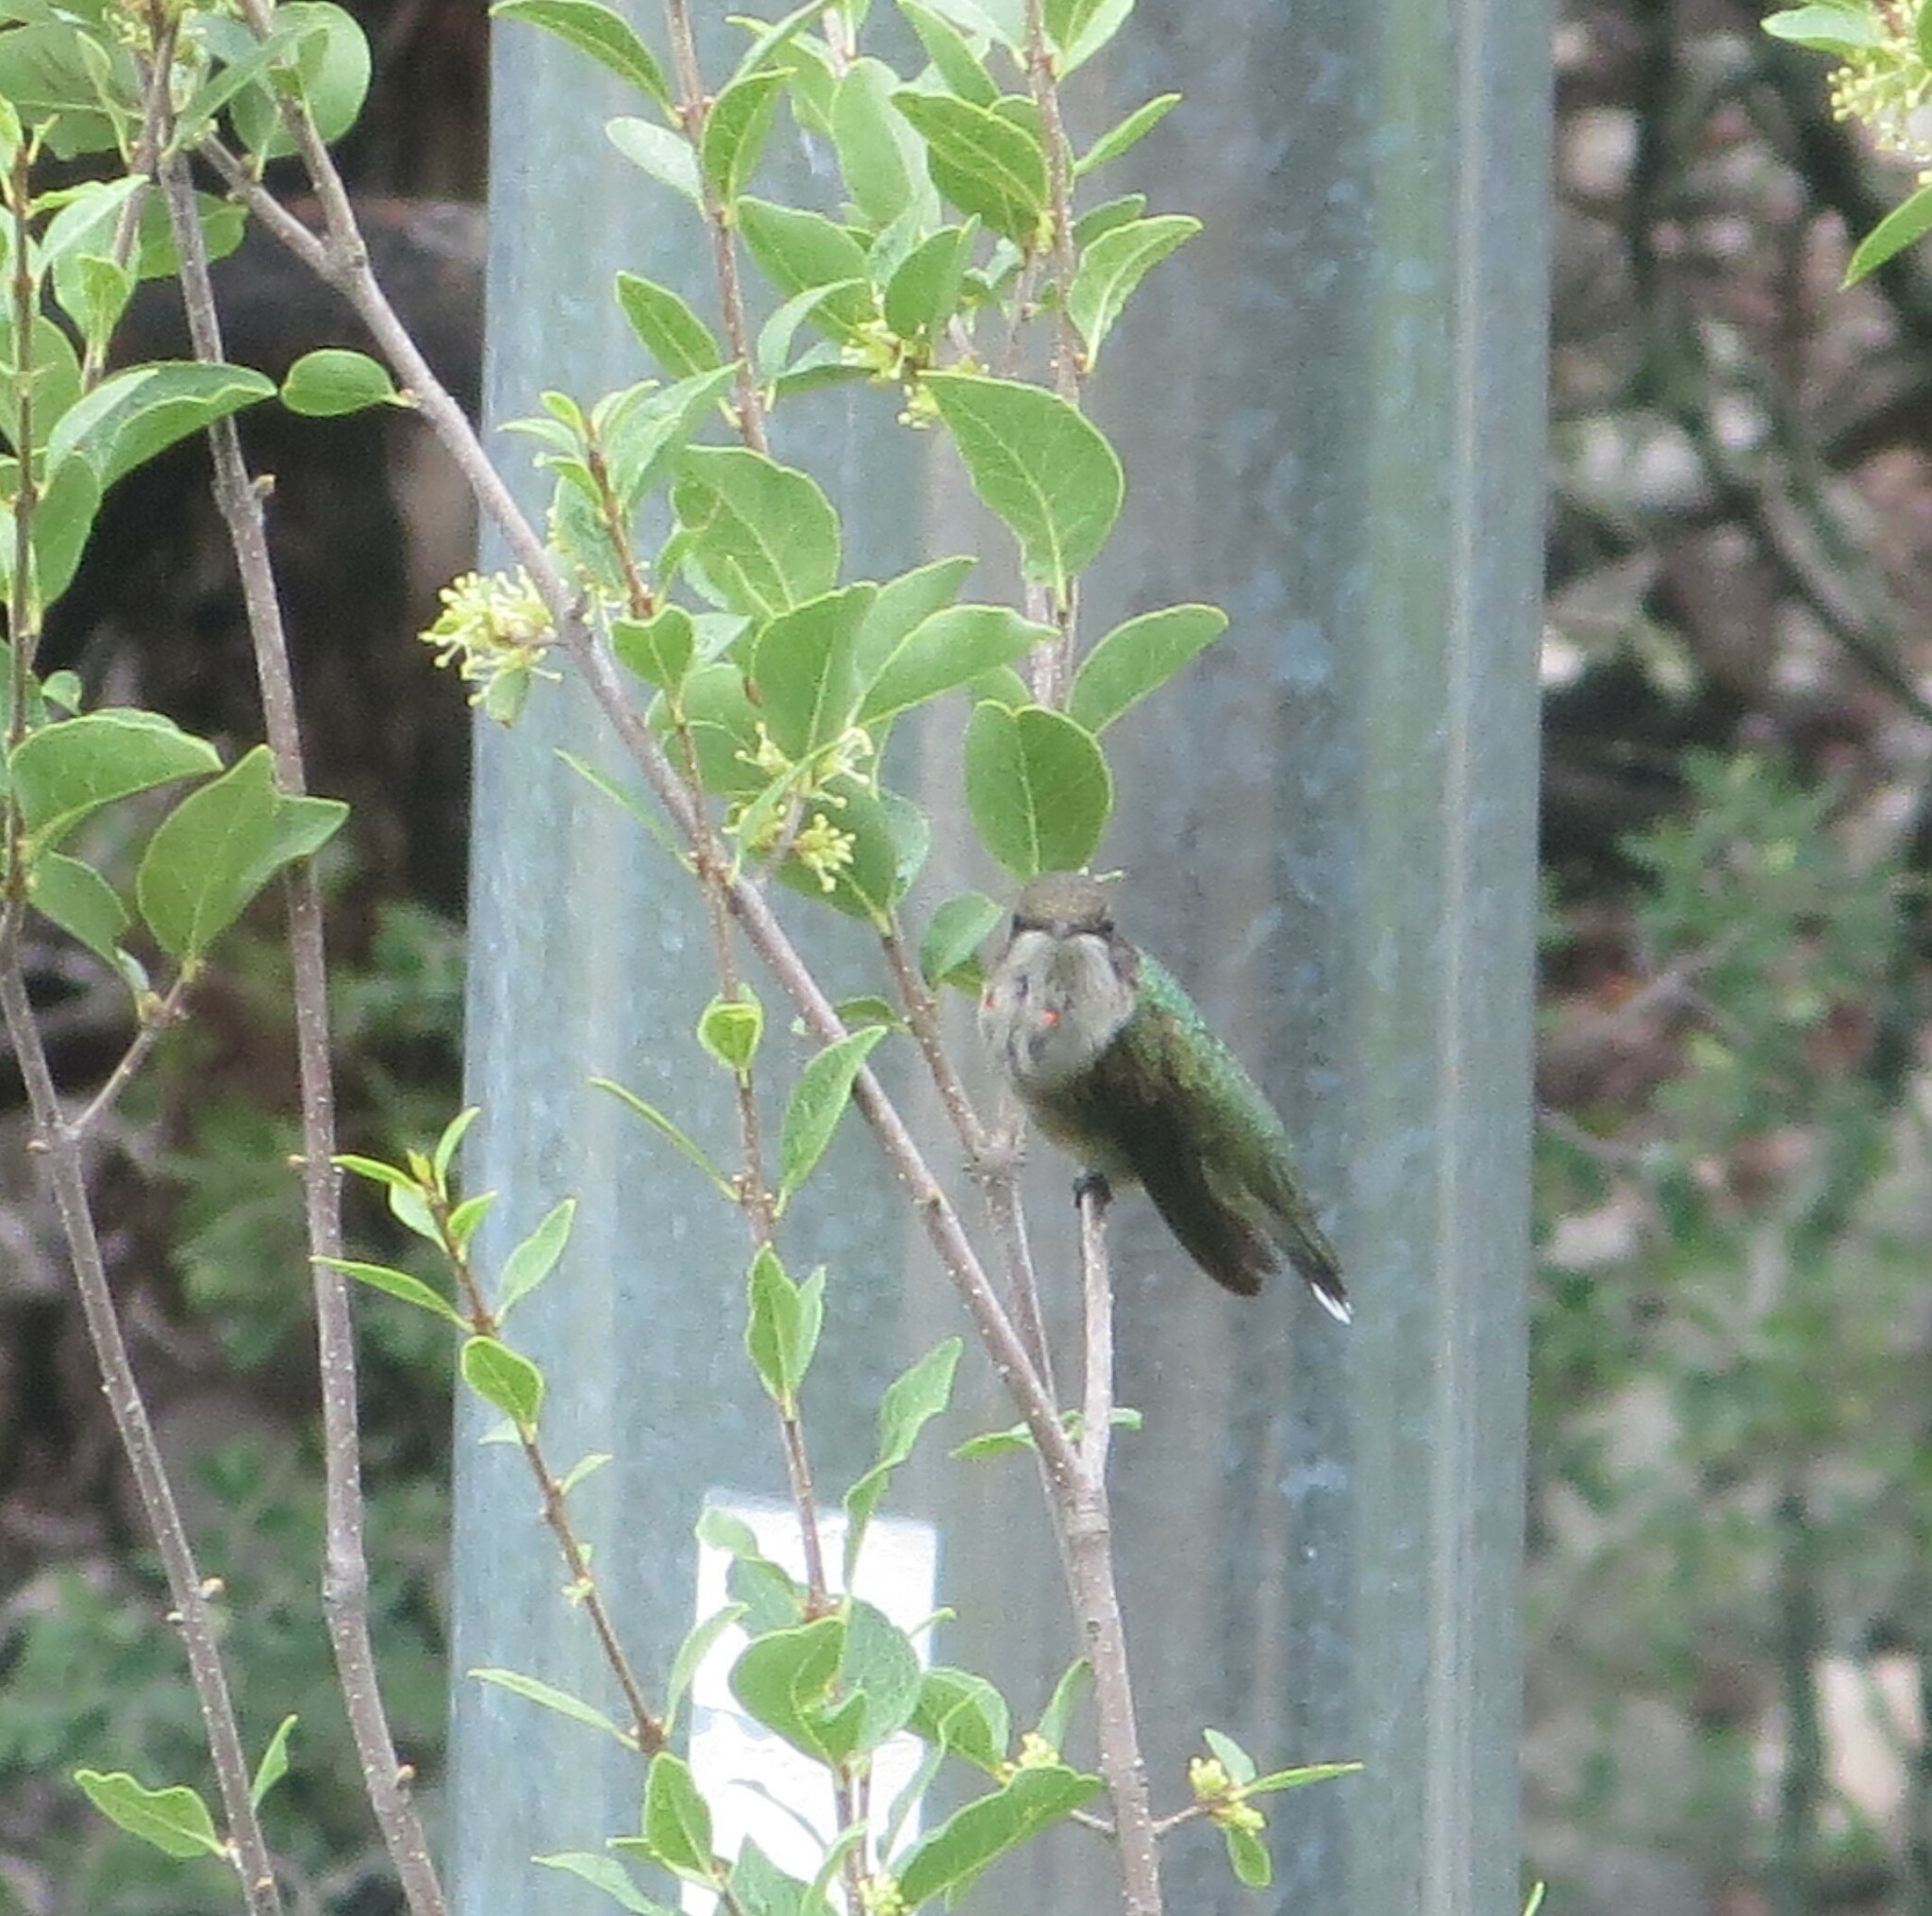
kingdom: Animalia
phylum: Chordata
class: Aves
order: Apodiformes
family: Trochilidae
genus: Archilochus
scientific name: Archilochus colubris
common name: Ruby-throated hummingbird
